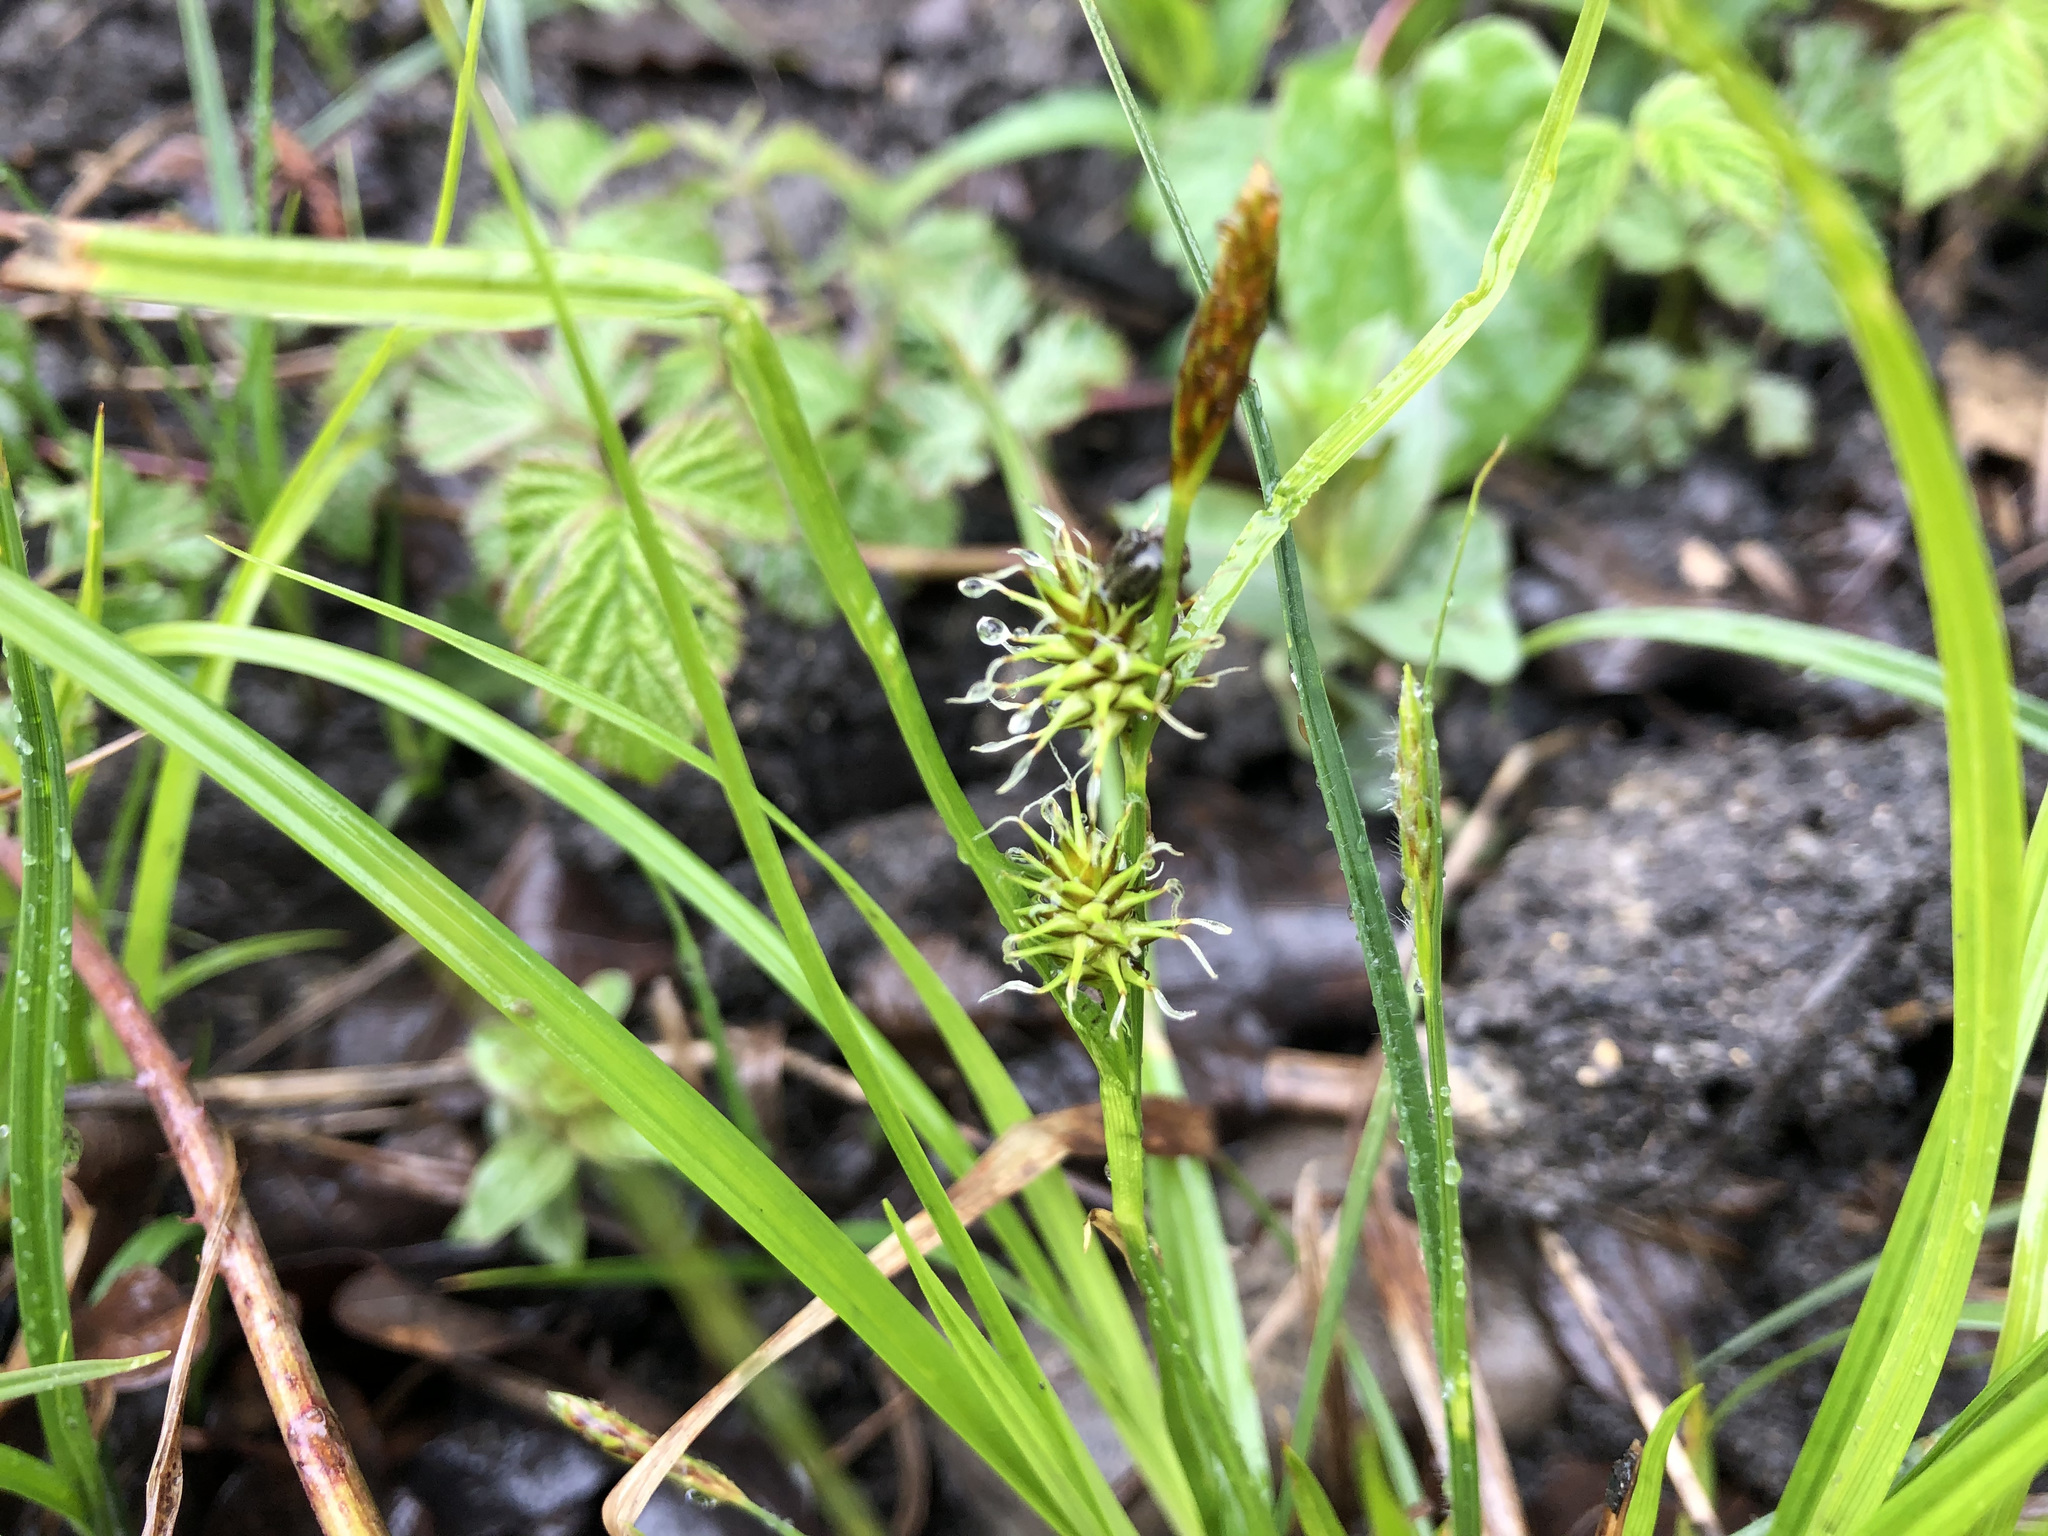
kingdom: Plantae
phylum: Tracheophyta
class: Liliopsida
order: Poales
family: Cyperaceae
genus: Carex
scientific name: Carex flava
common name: Large yellow-sedge
